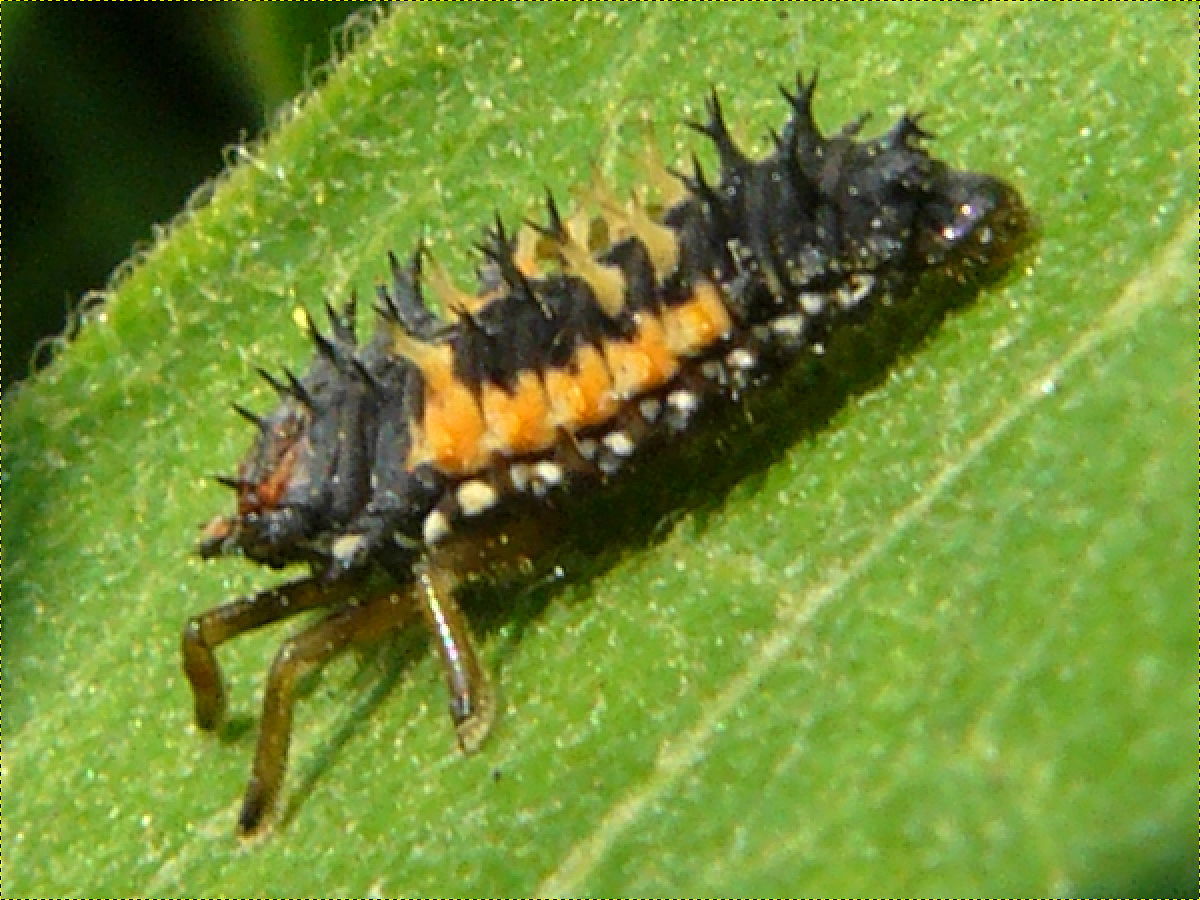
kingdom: Animalia
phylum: Arthropoda
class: Insecta
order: Coleoptera
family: Coccinellidae
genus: Harmonia
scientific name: Harmonia axyridis
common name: Harlequin ladybird
